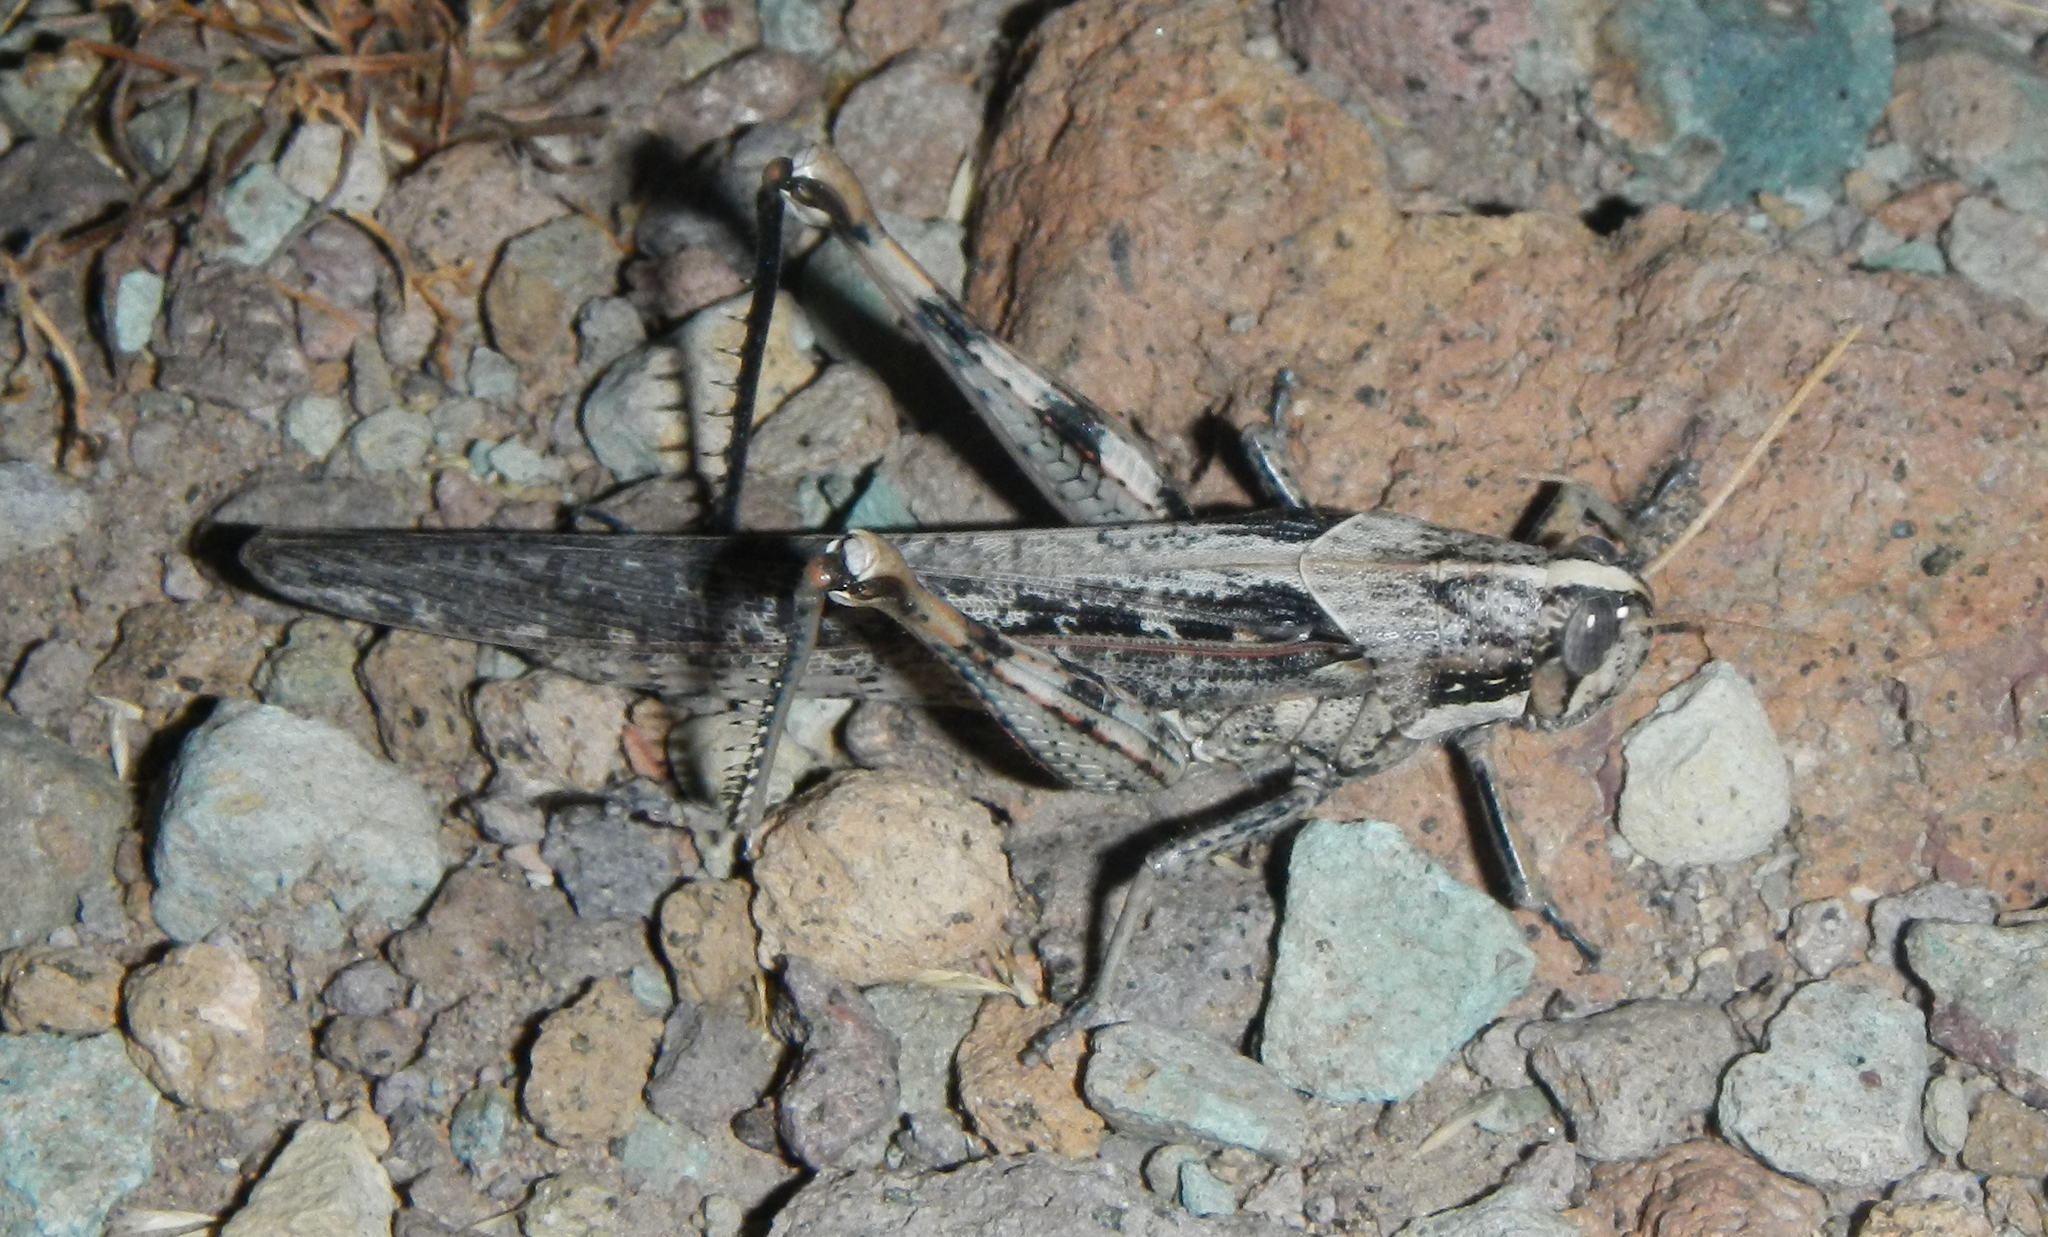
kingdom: Animalia
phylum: Arthropoda
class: Insecta
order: Orthoptera
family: Acrididae
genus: Schistocerca
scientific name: Schistocerca nitens
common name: Vagrant grasshopper
